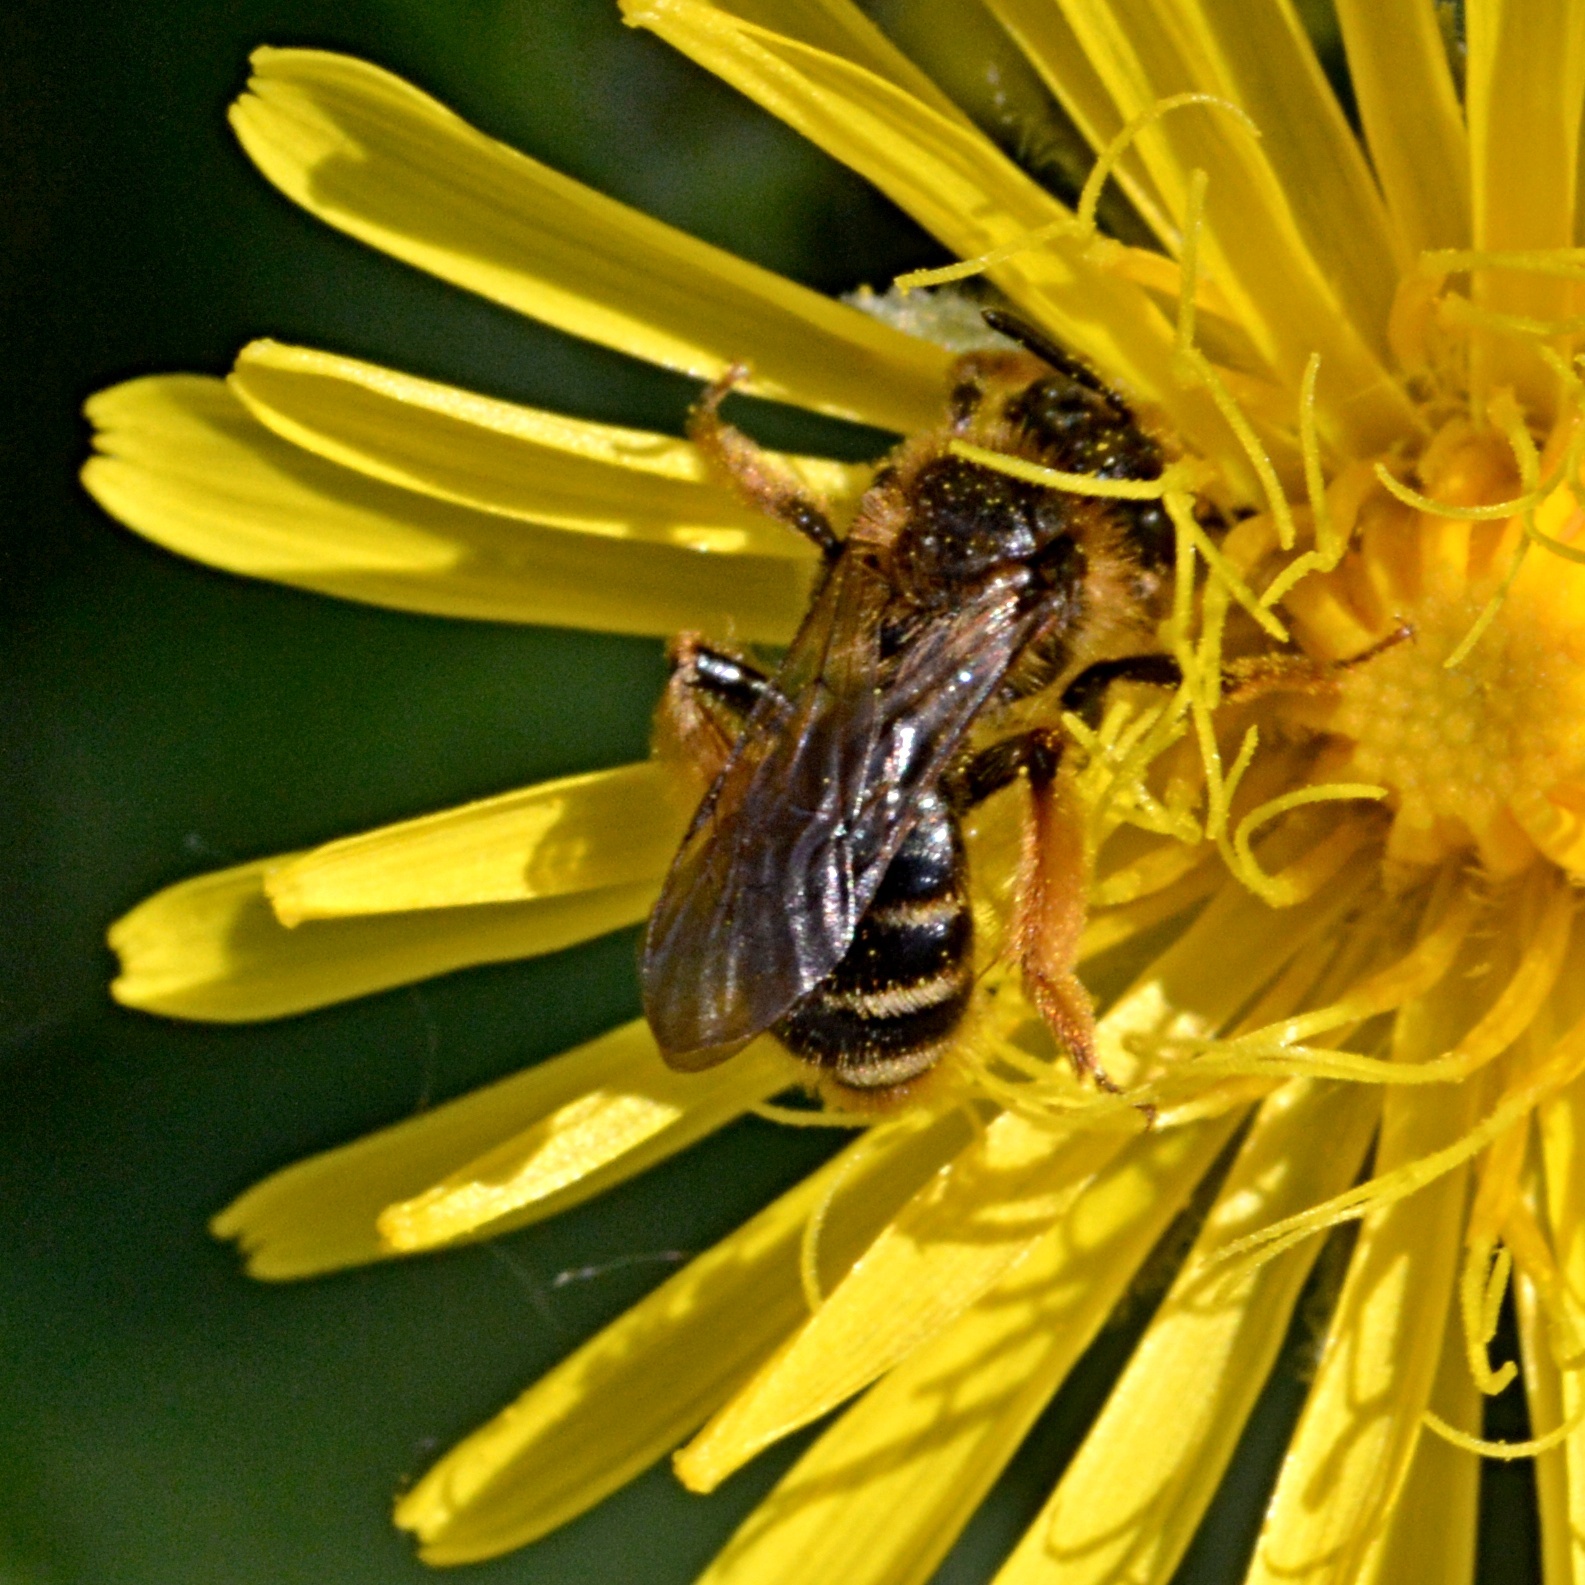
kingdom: Animalia
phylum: Arthropoda
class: Insecta
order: Hymenoptera
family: Andrenidae
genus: Andrena
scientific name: Andrena florivaga
